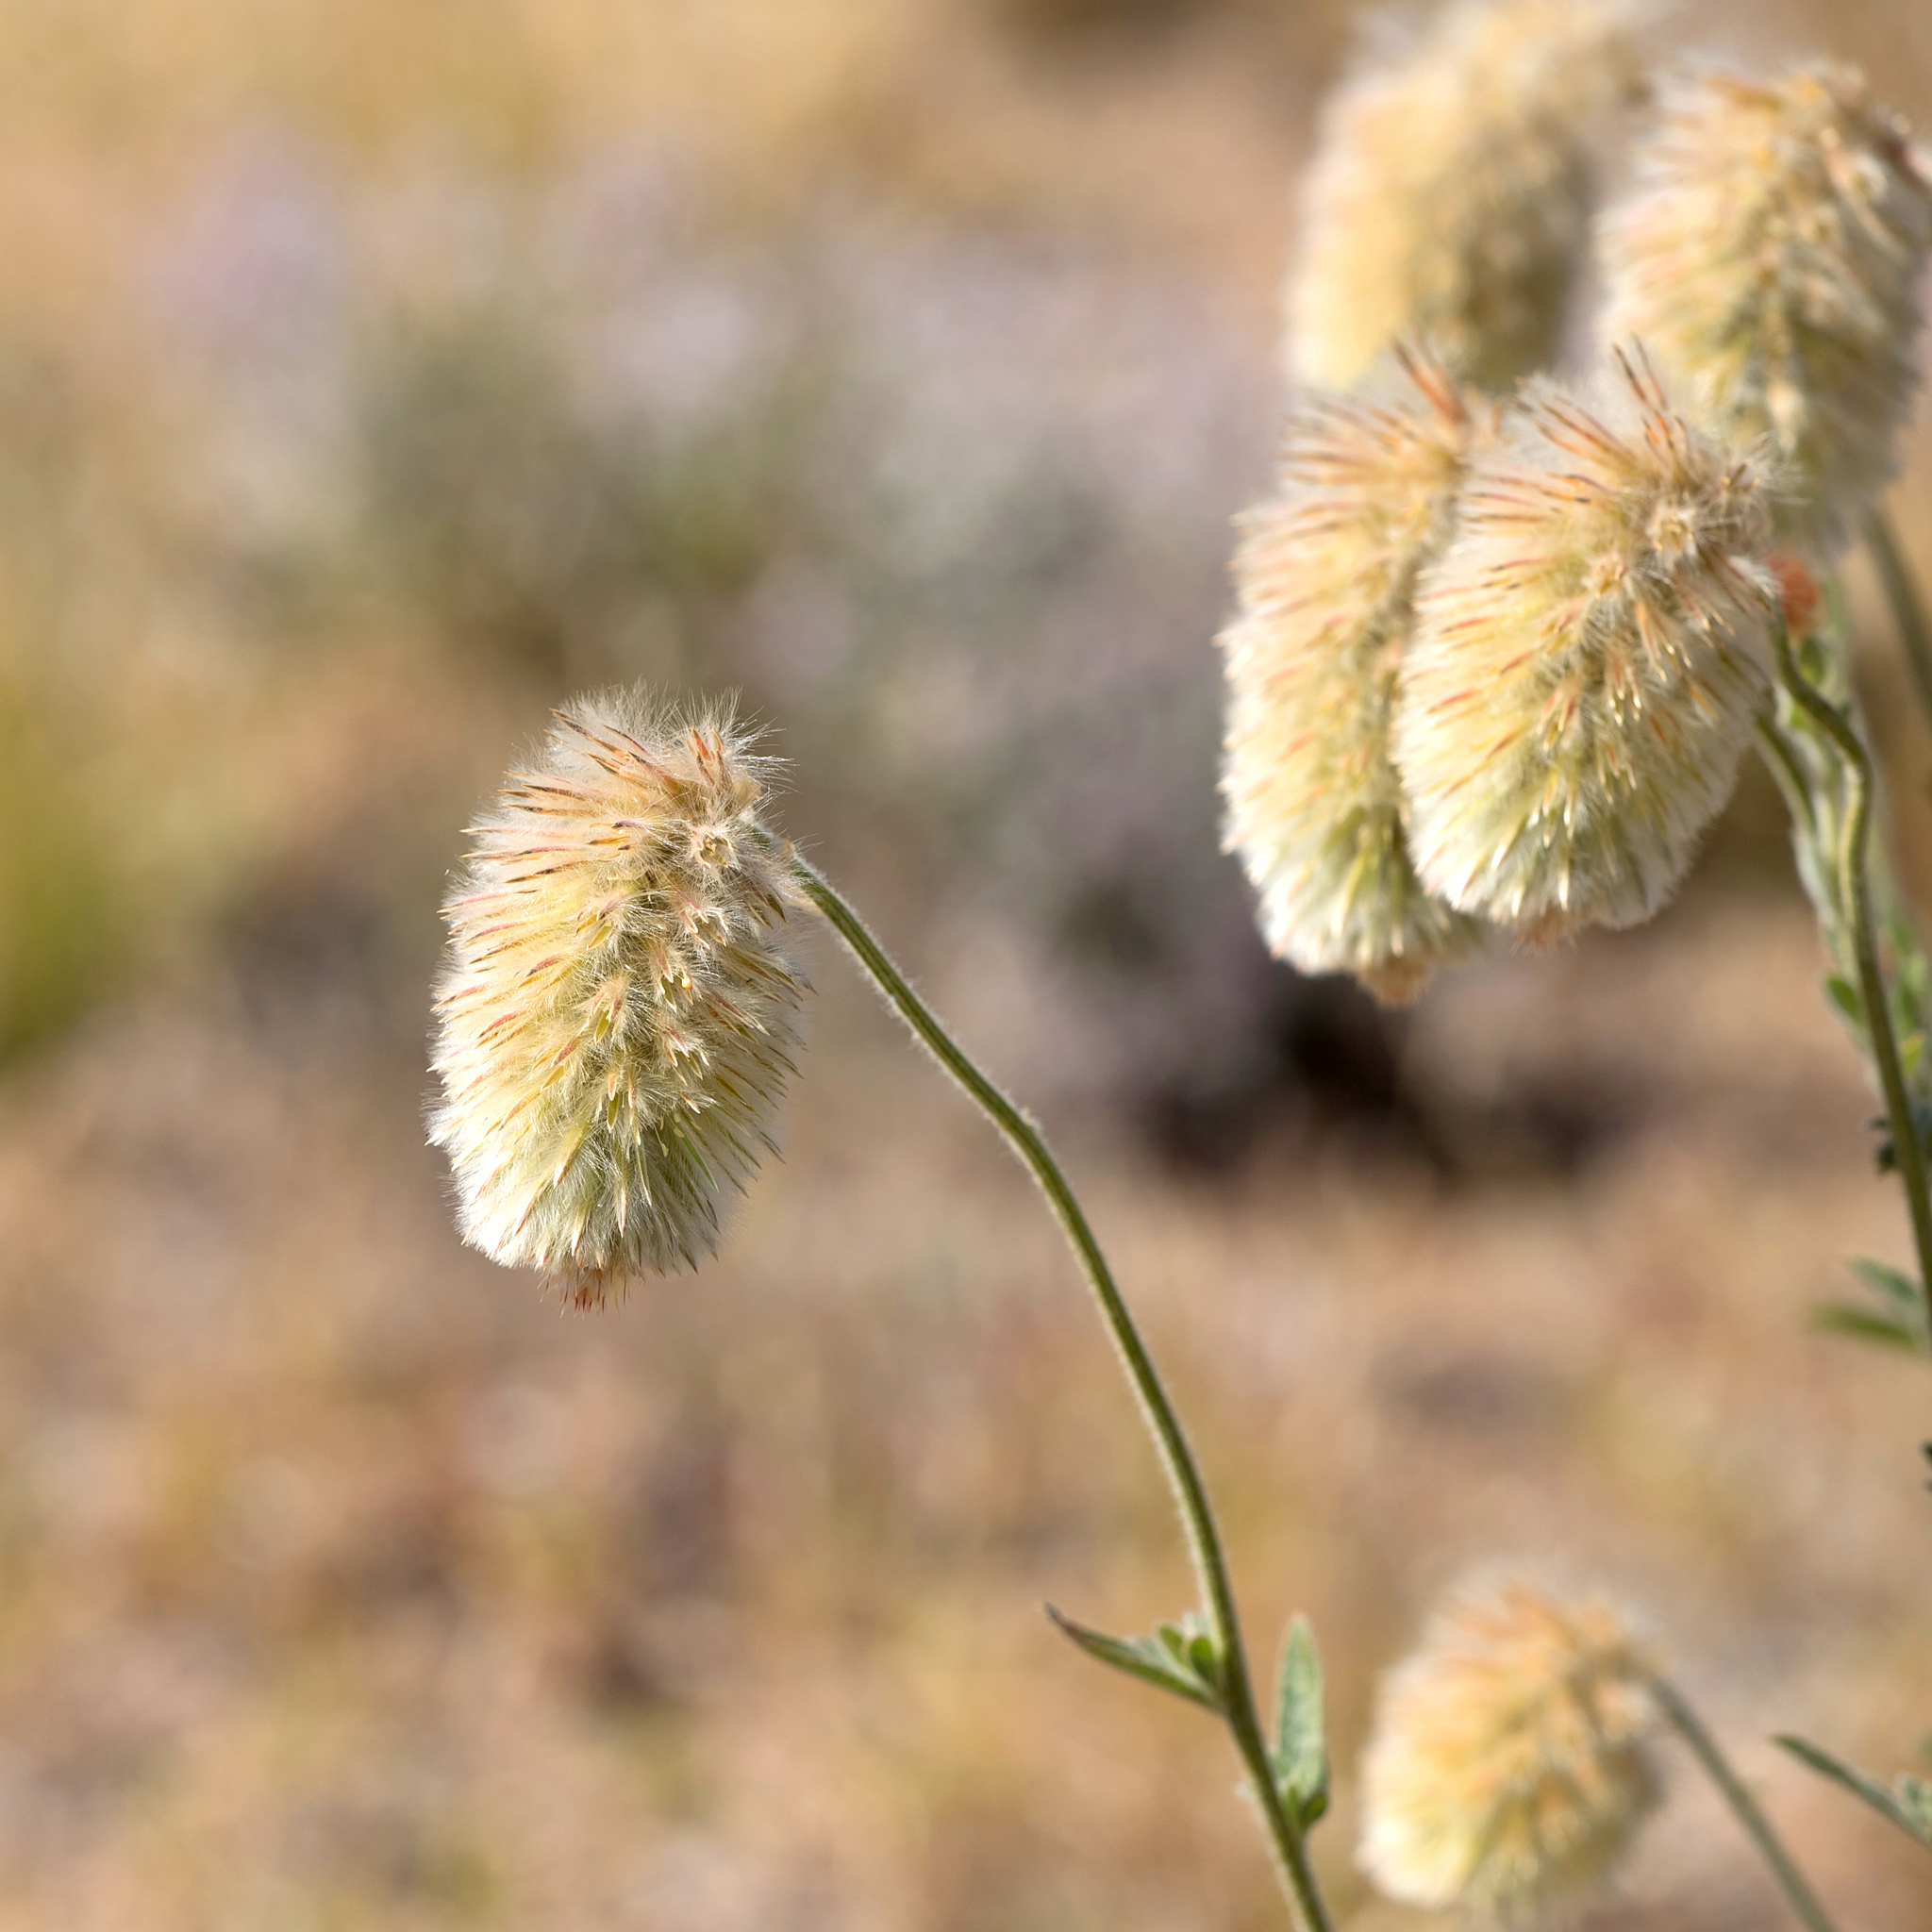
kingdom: Plantae
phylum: Tracheophyta
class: Magnoliopsida
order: Caryophyllales
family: Amaranthaceae
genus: Ptilotus
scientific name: Ptilotus clementii
